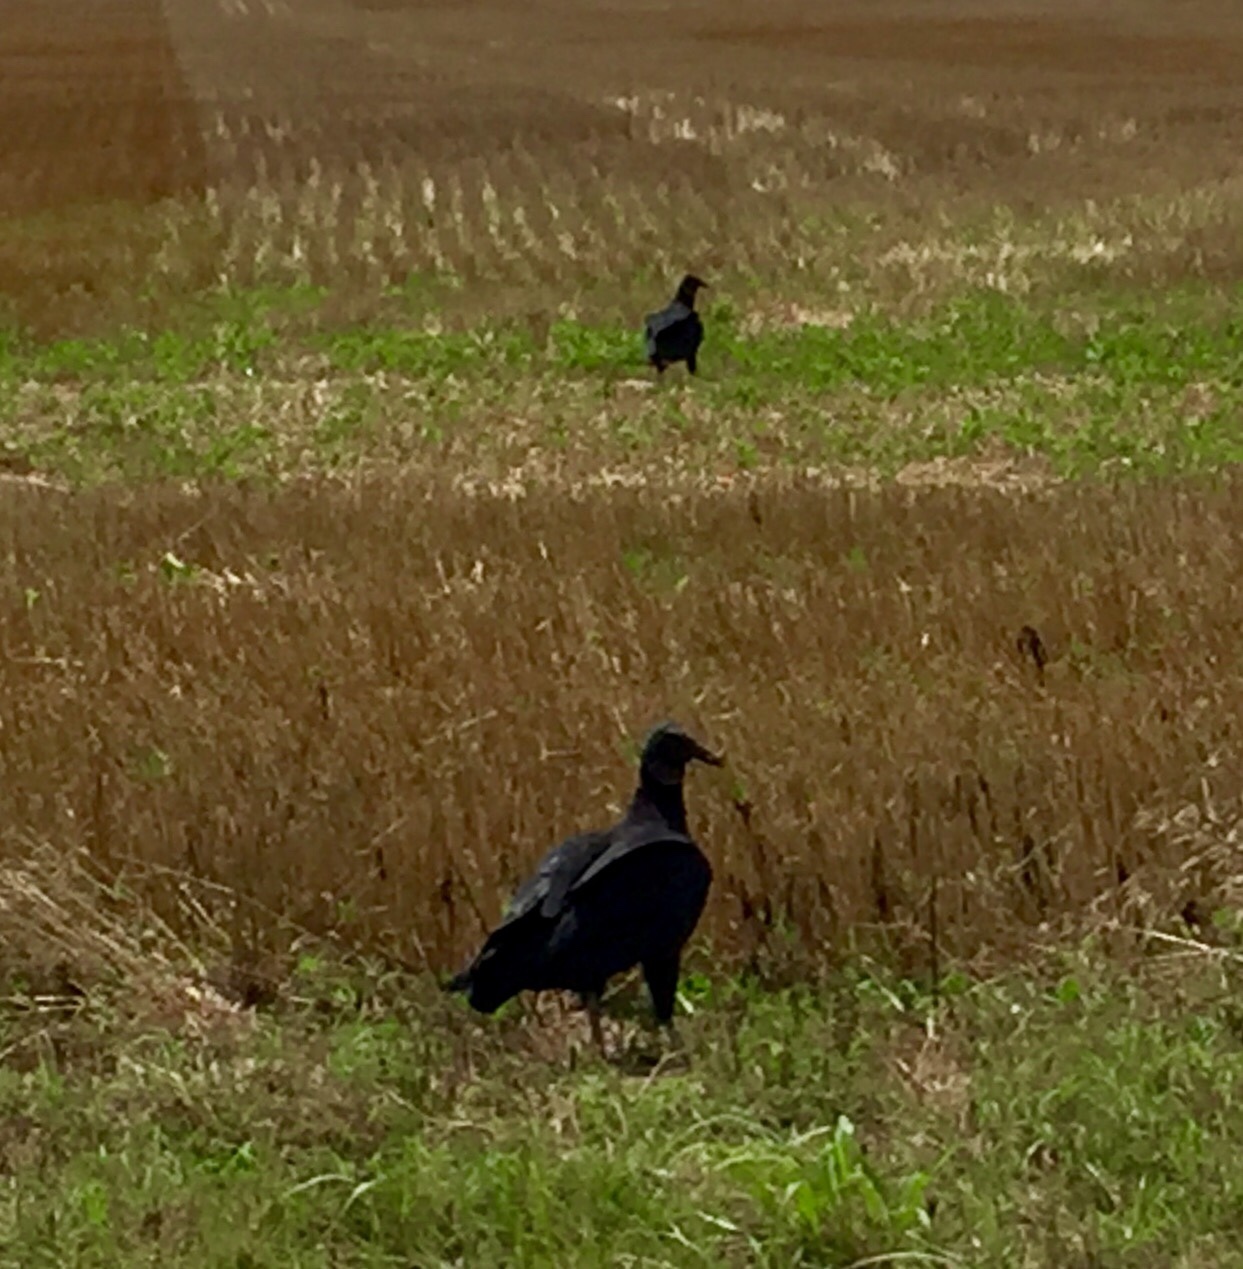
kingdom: Animalia
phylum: Chordata
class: Aves
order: Accipitriformes
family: Cathartidae
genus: Coragyps
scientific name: Coragyps atratus
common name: Black vulture
